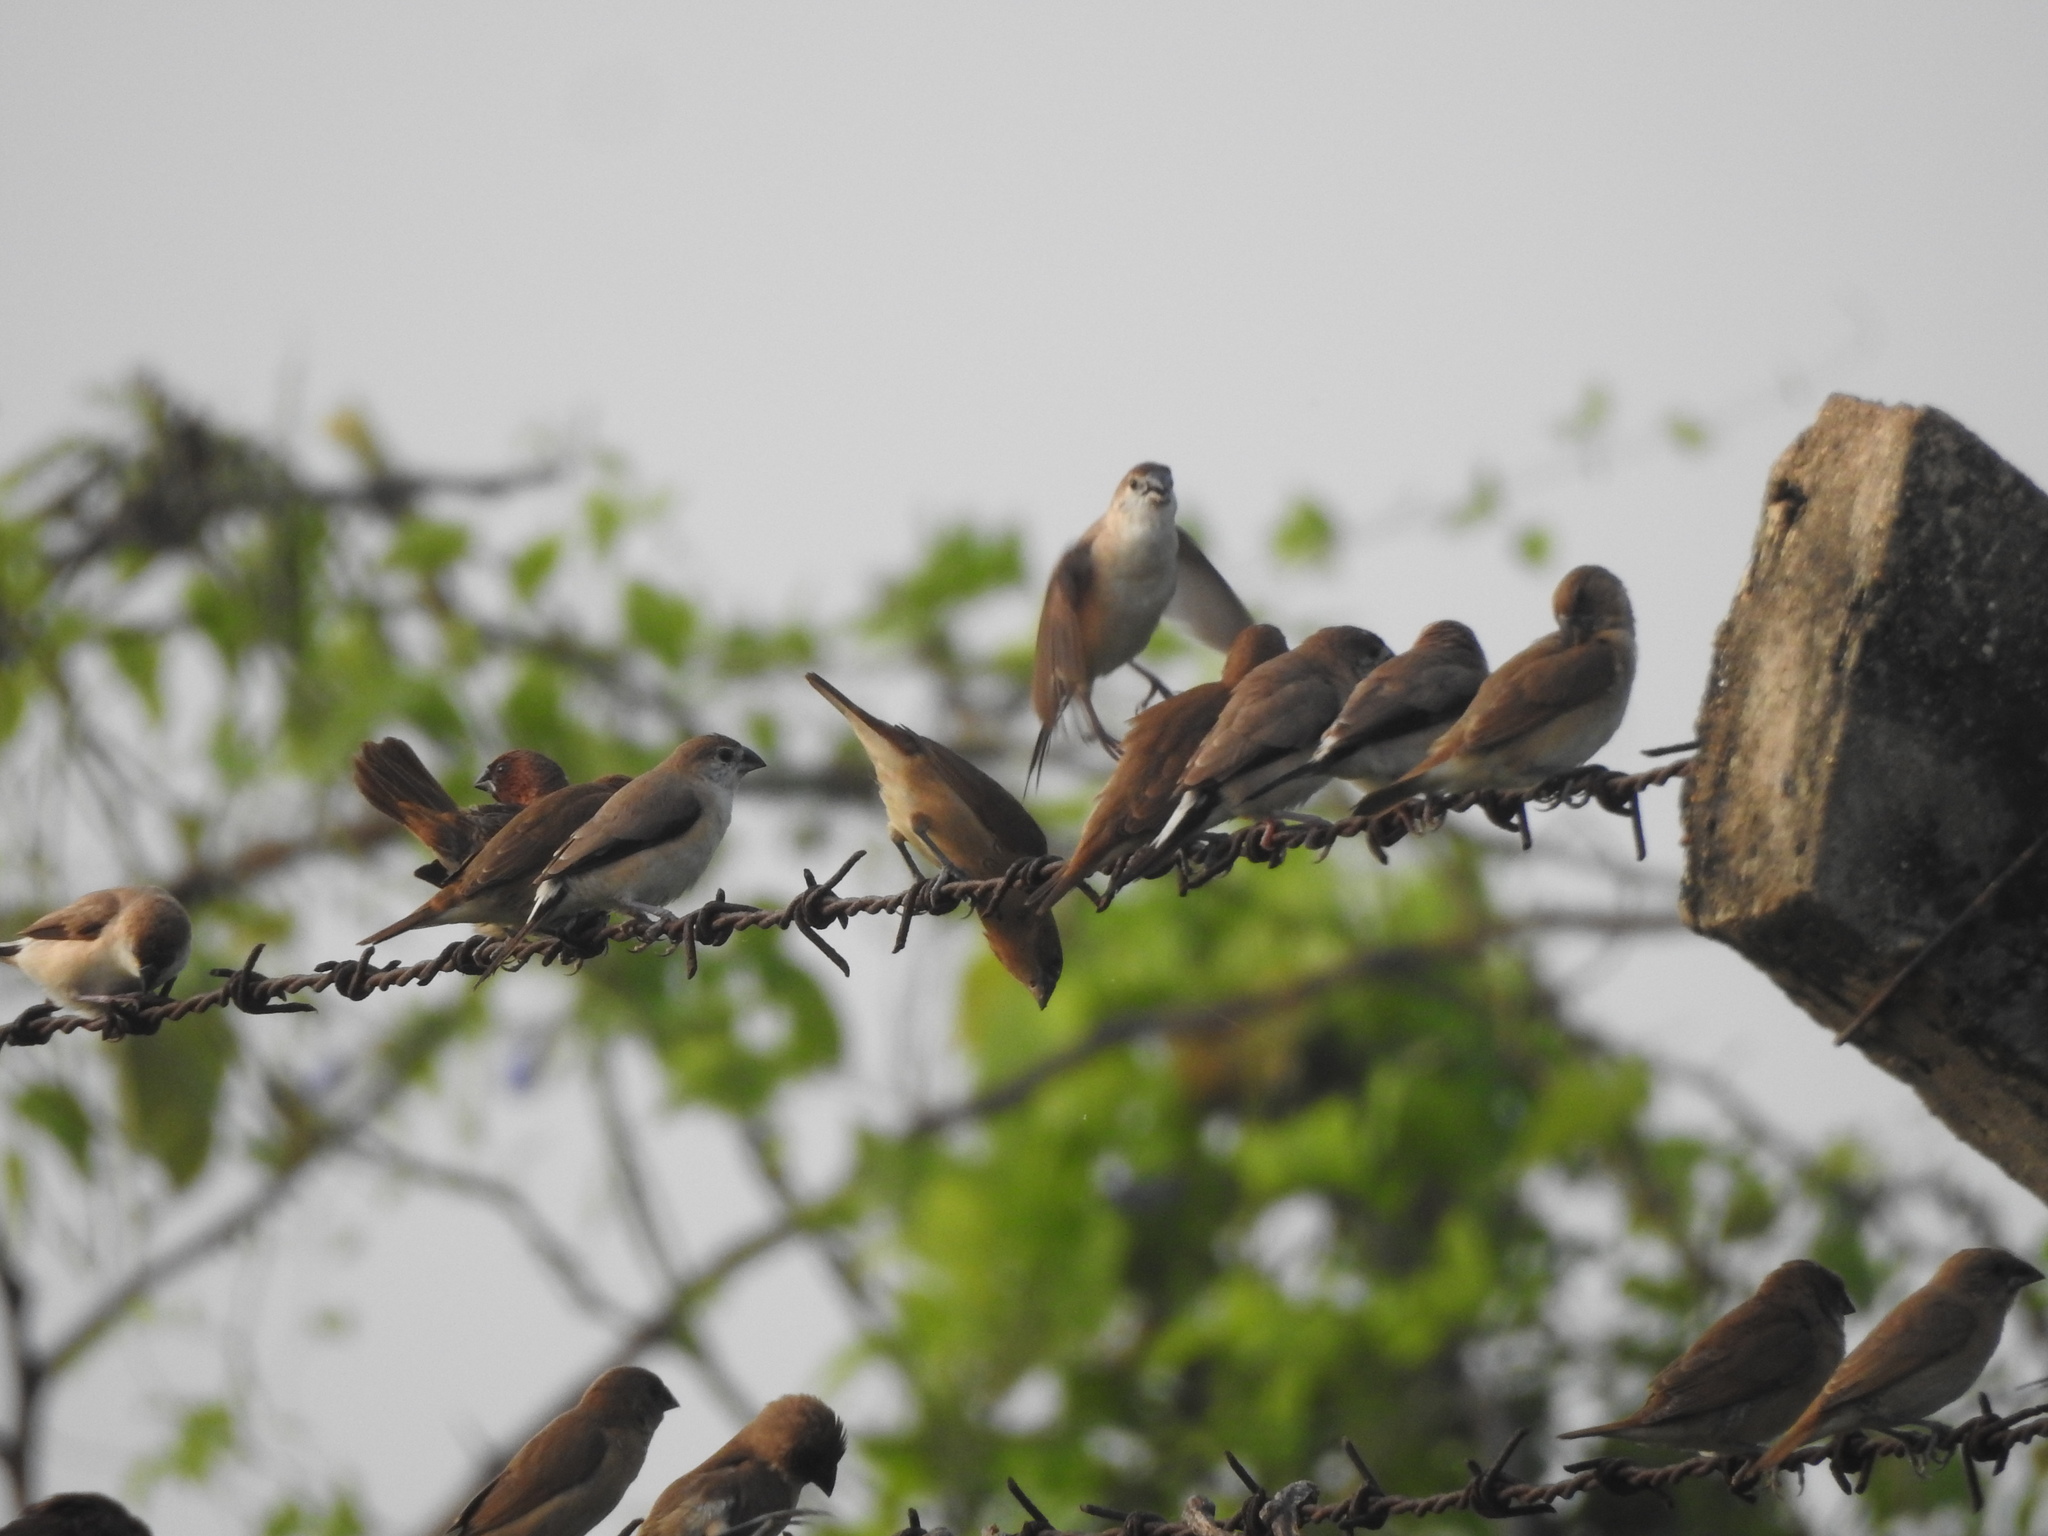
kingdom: Animalia
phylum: Chordata
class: Aves
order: Passeriformes
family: Estrildidae
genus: Lonchura
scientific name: Lonchura punctulata
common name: Scaly-breasted munia
